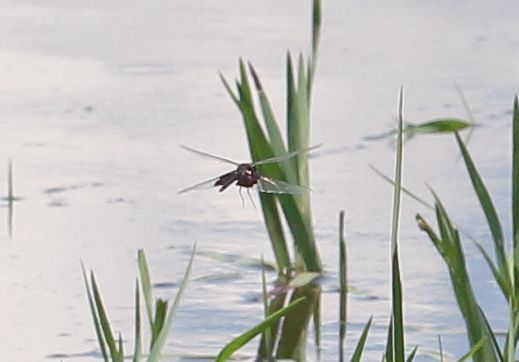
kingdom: Animalia
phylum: Arthropoda
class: Insecta
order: Odonata
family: Libellulidae
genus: Rhyothemis
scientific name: Rhyothemis semihyalina
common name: Phantom flutterer
